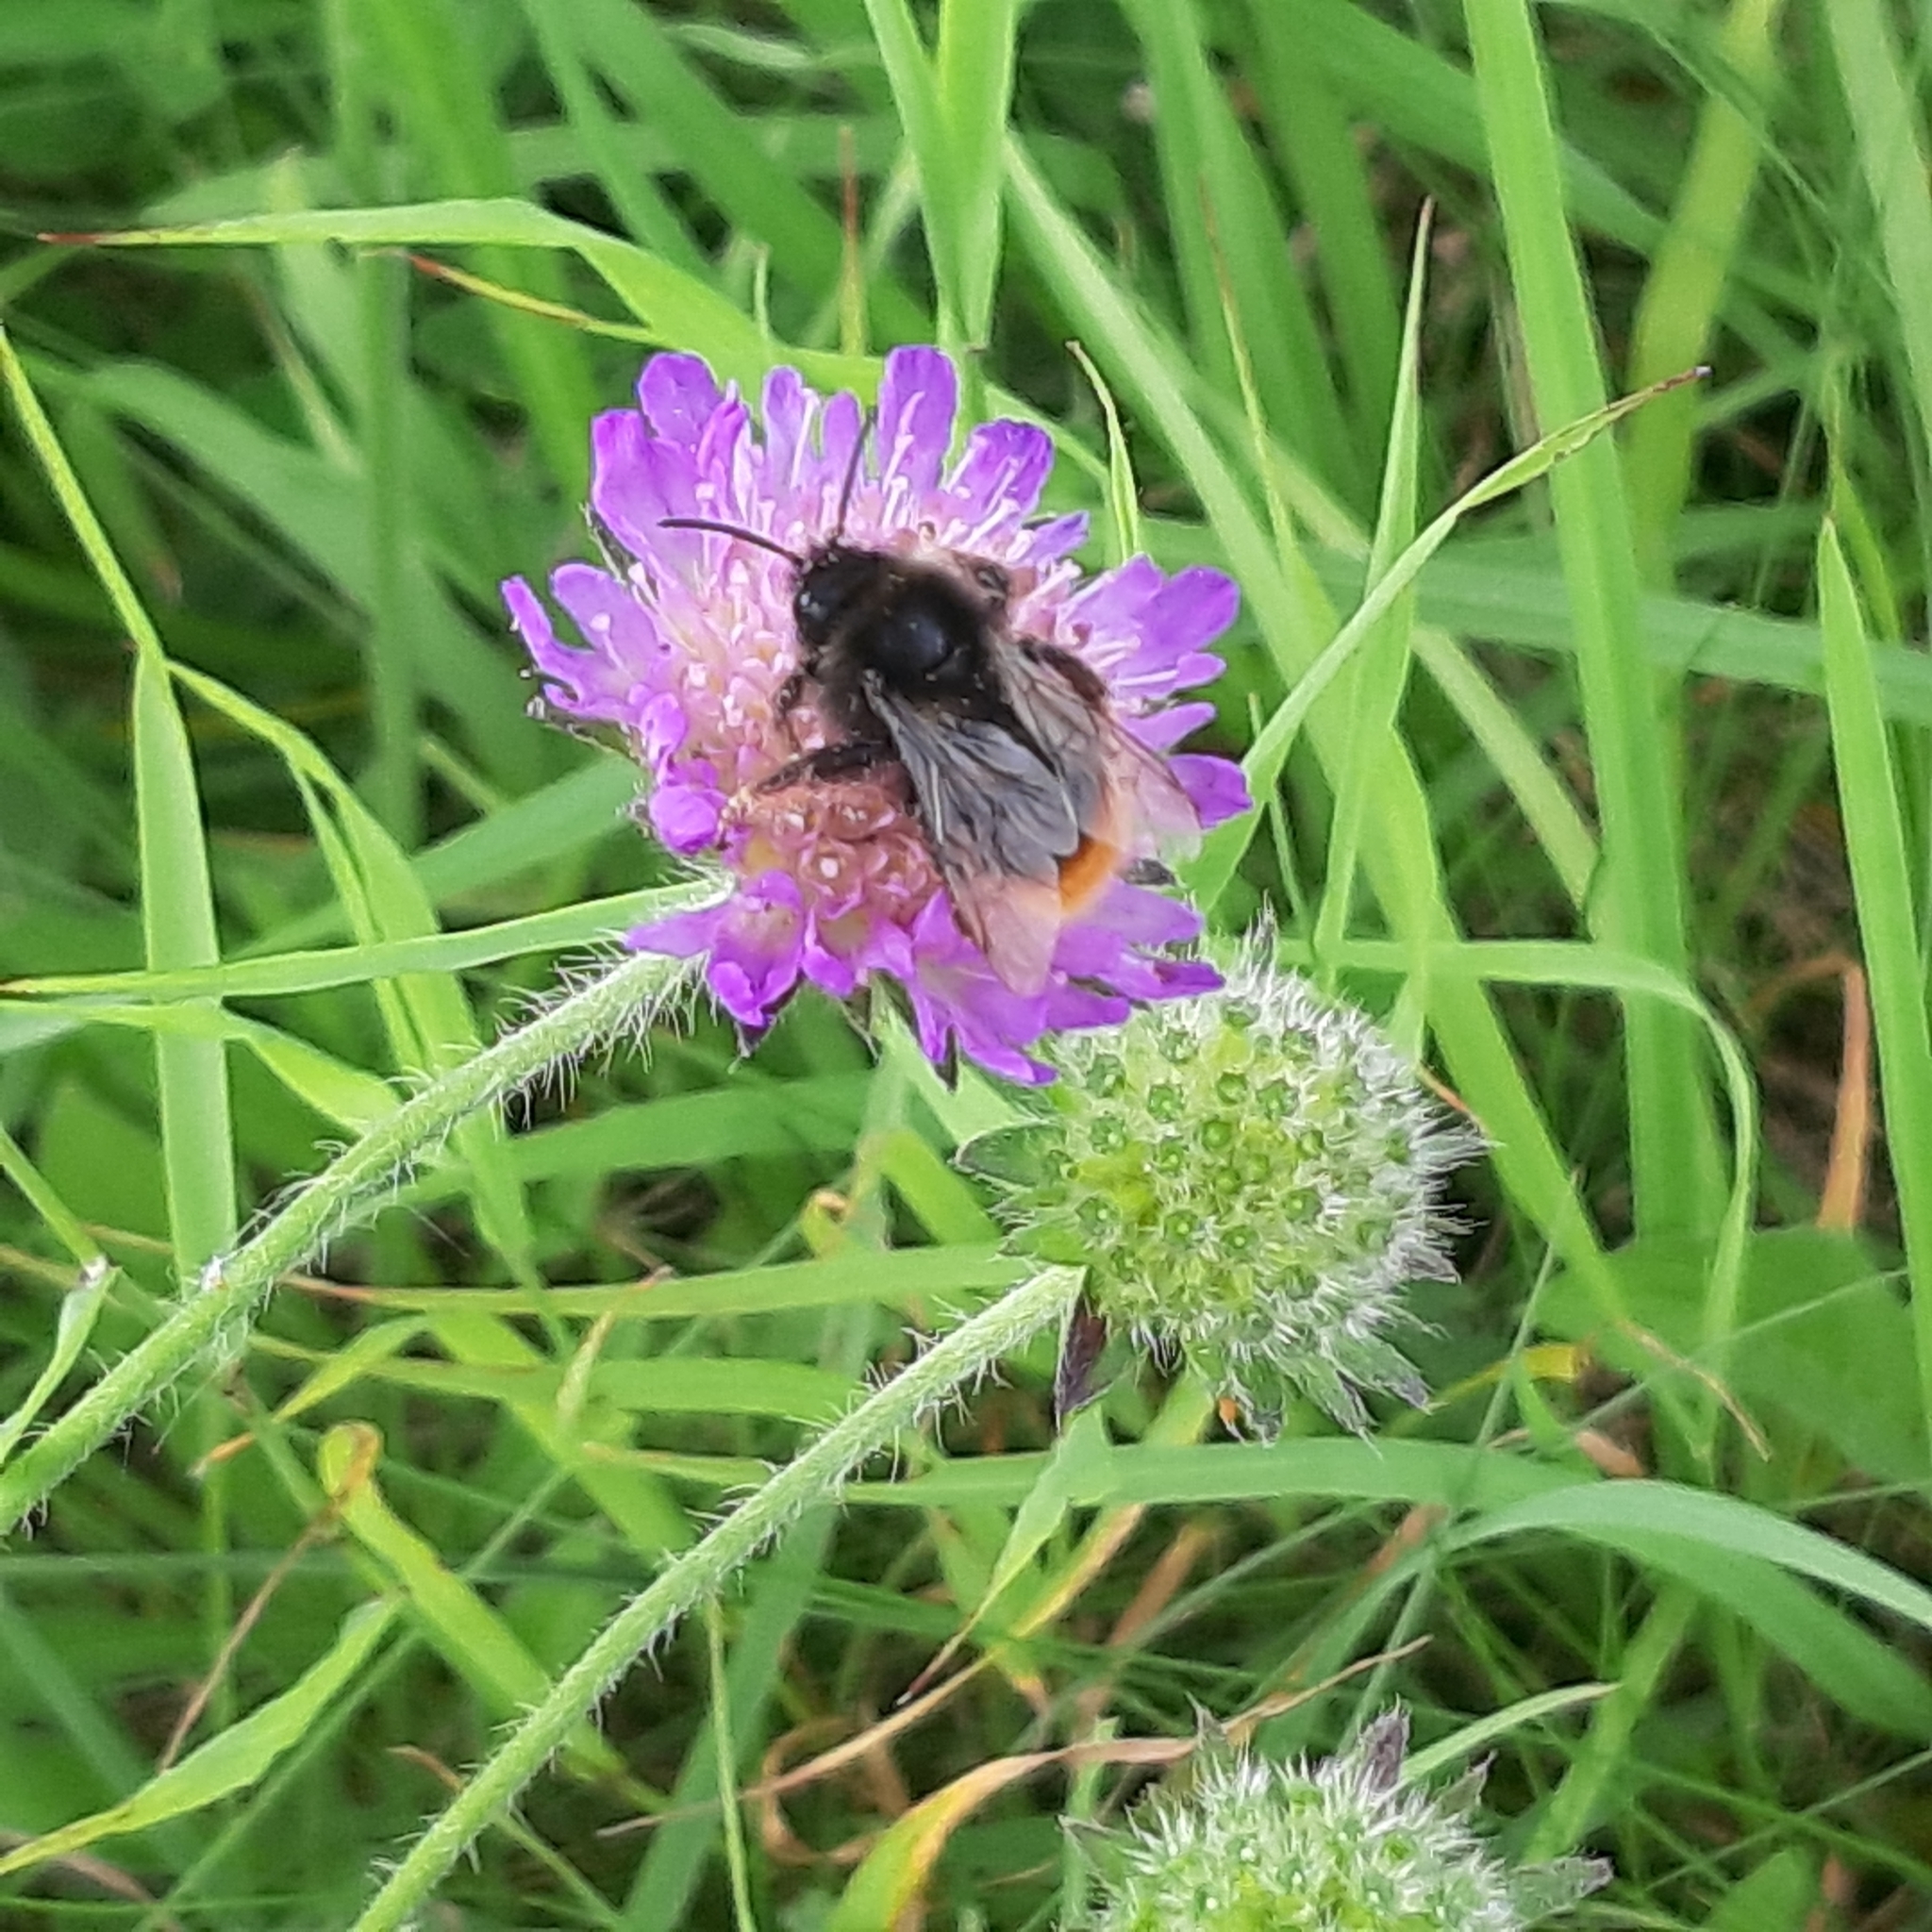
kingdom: Animalia
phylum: Arthropoda
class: Insecta
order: Hymenoptera
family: Apidae
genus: Bombus
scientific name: Bombus lapidarius
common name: Large red-tailed humble-bee
